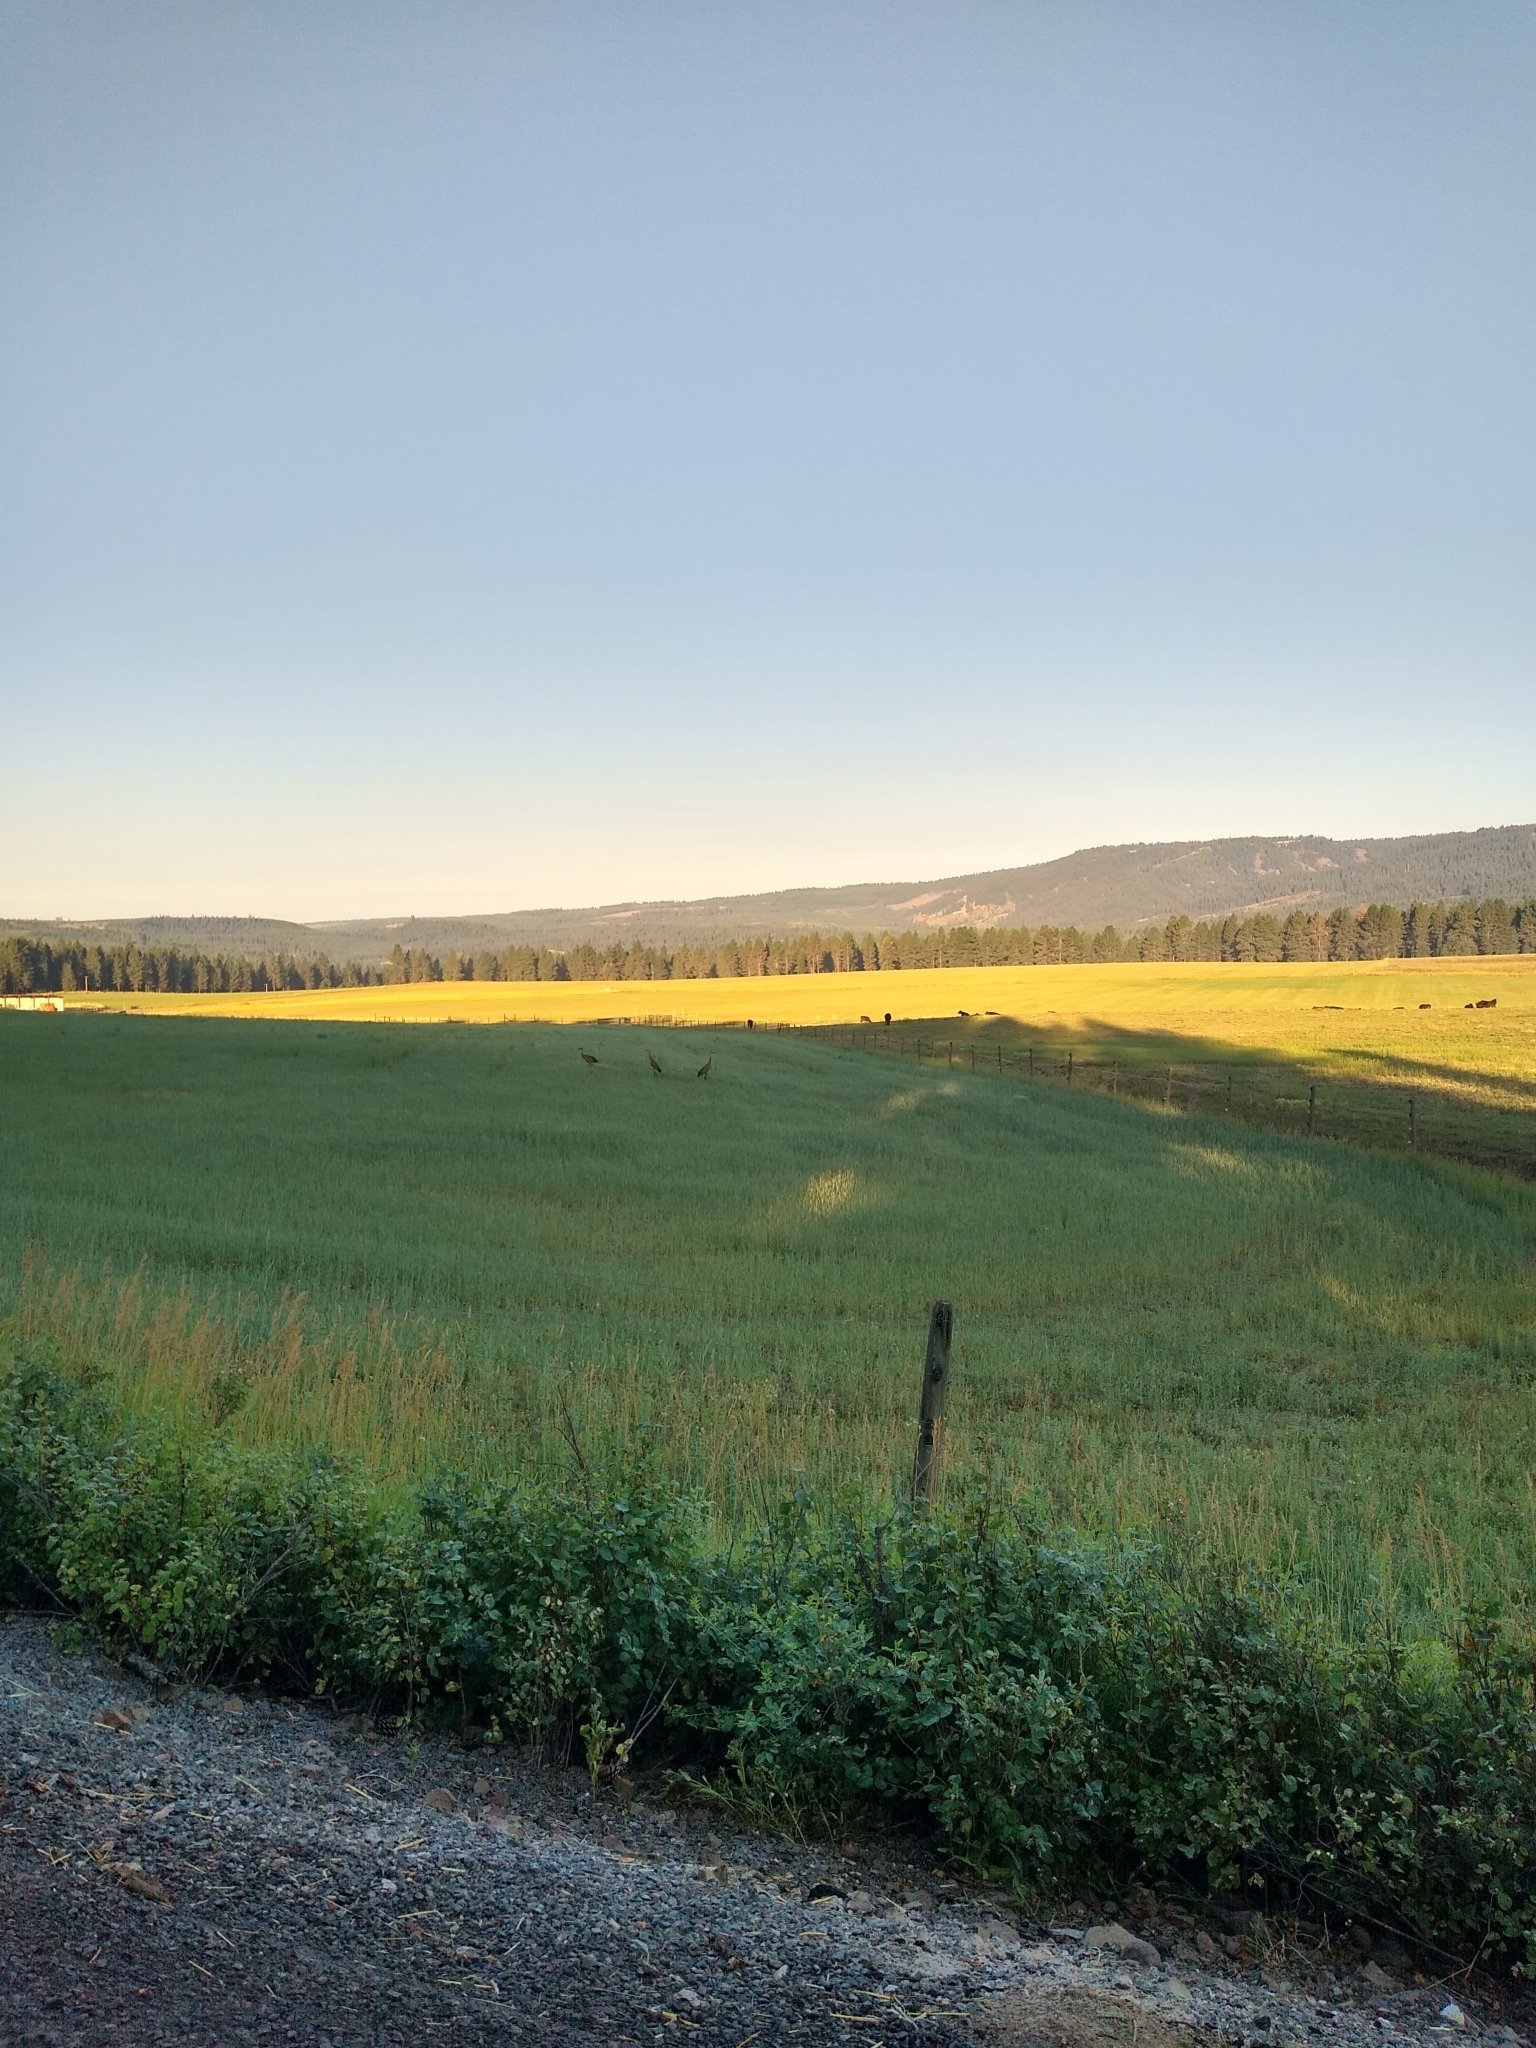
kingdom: Animalia
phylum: Chordata
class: Aves
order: Gruiformes
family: Gruidae
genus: Grus
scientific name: Grus canadensis
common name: Sandhill crane
